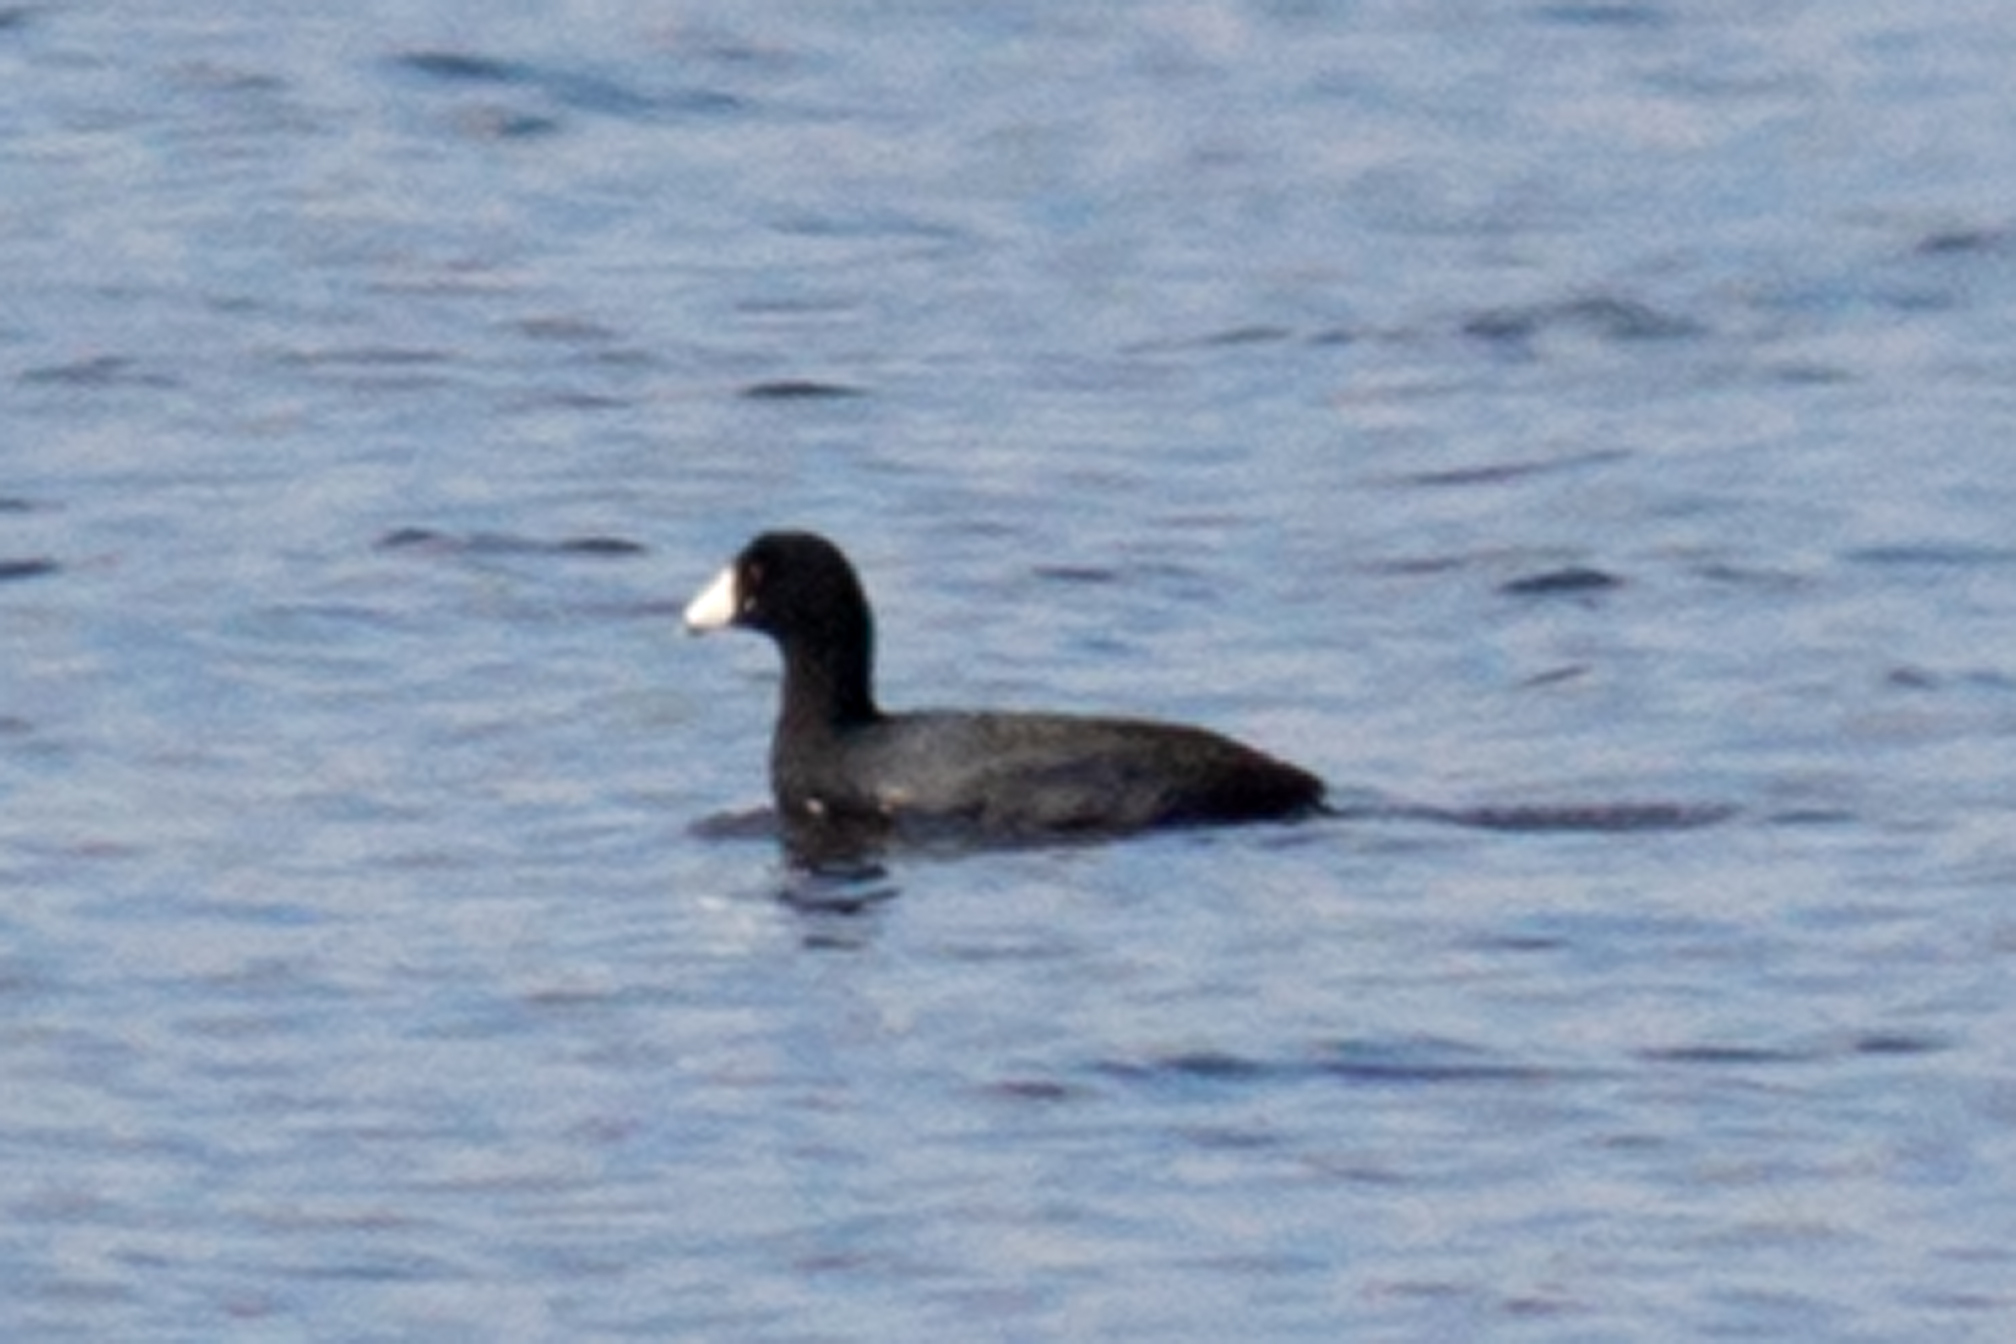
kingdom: Animalia
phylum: Chordata
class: Aves
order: Gruiformes
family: Rallidae
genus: Fulica
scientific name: Fulica americana
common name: American coot
